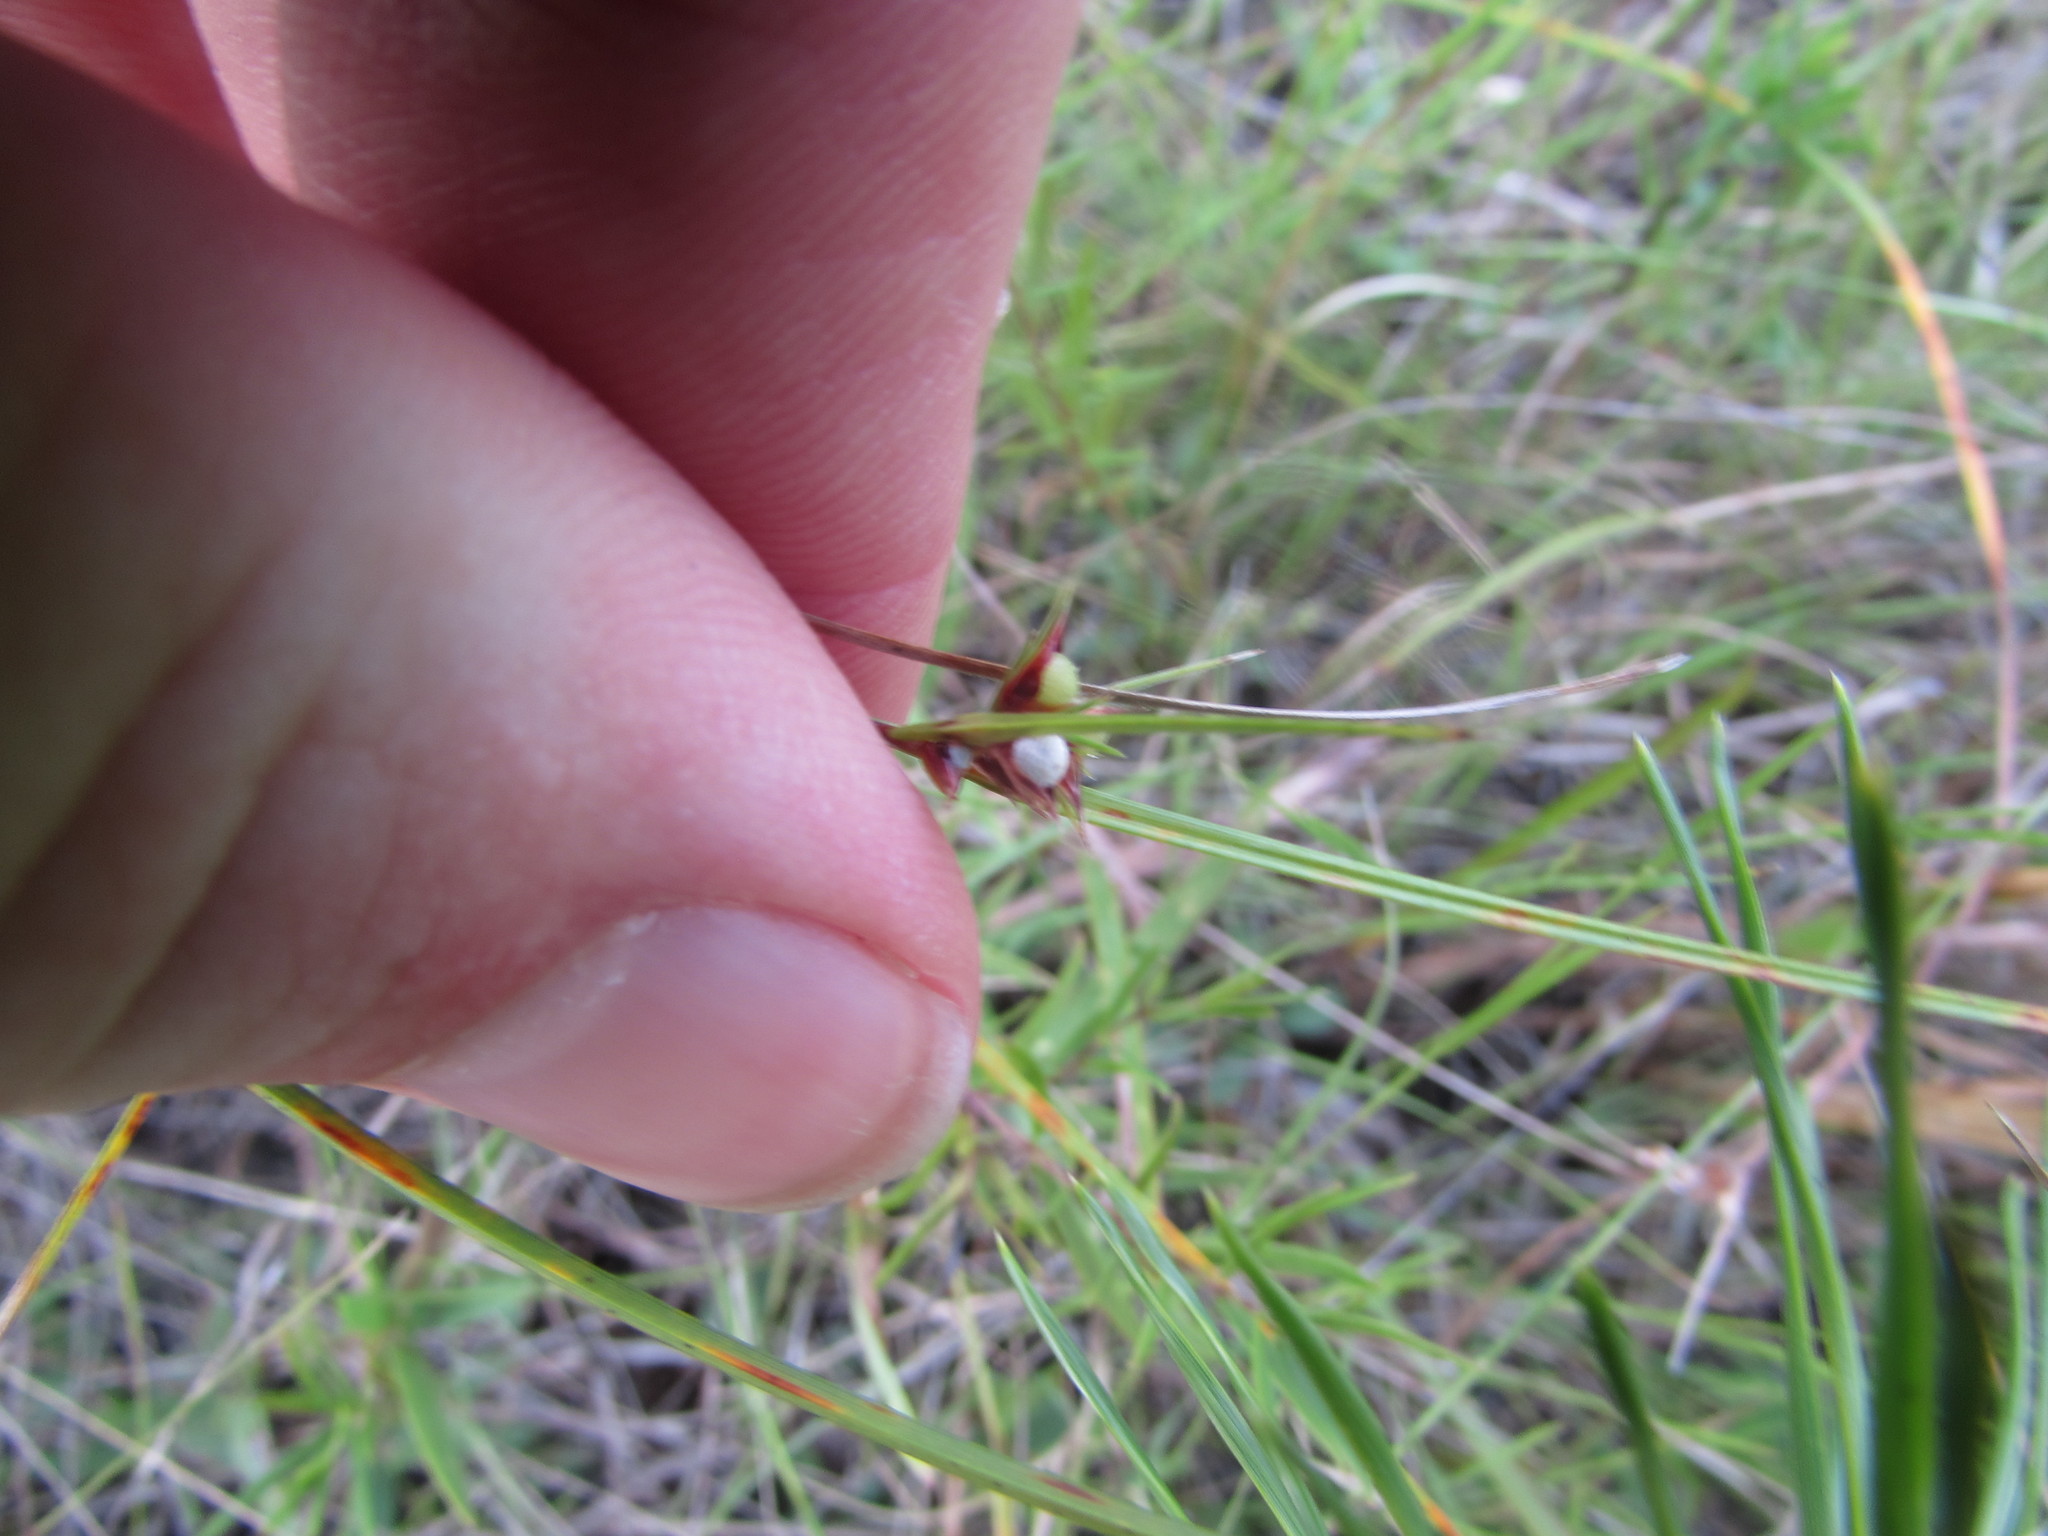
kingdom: Plantae
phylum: Tracheophyta
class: Liliopsida
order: Poales
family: Cyperaceae
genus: Scleria
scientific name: Scleria pauciflora
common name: Few-flowered nutrush
